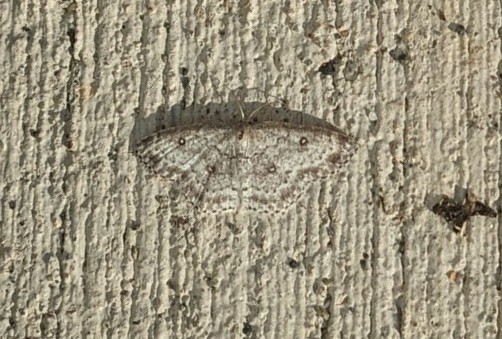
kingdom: Animalia
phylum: Arthropoda
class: Insecta
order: Lepidoptera
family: Geometridae
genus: Cyclophora
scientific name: Cyclophora pendulinaria
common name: Sweet fern geometer
